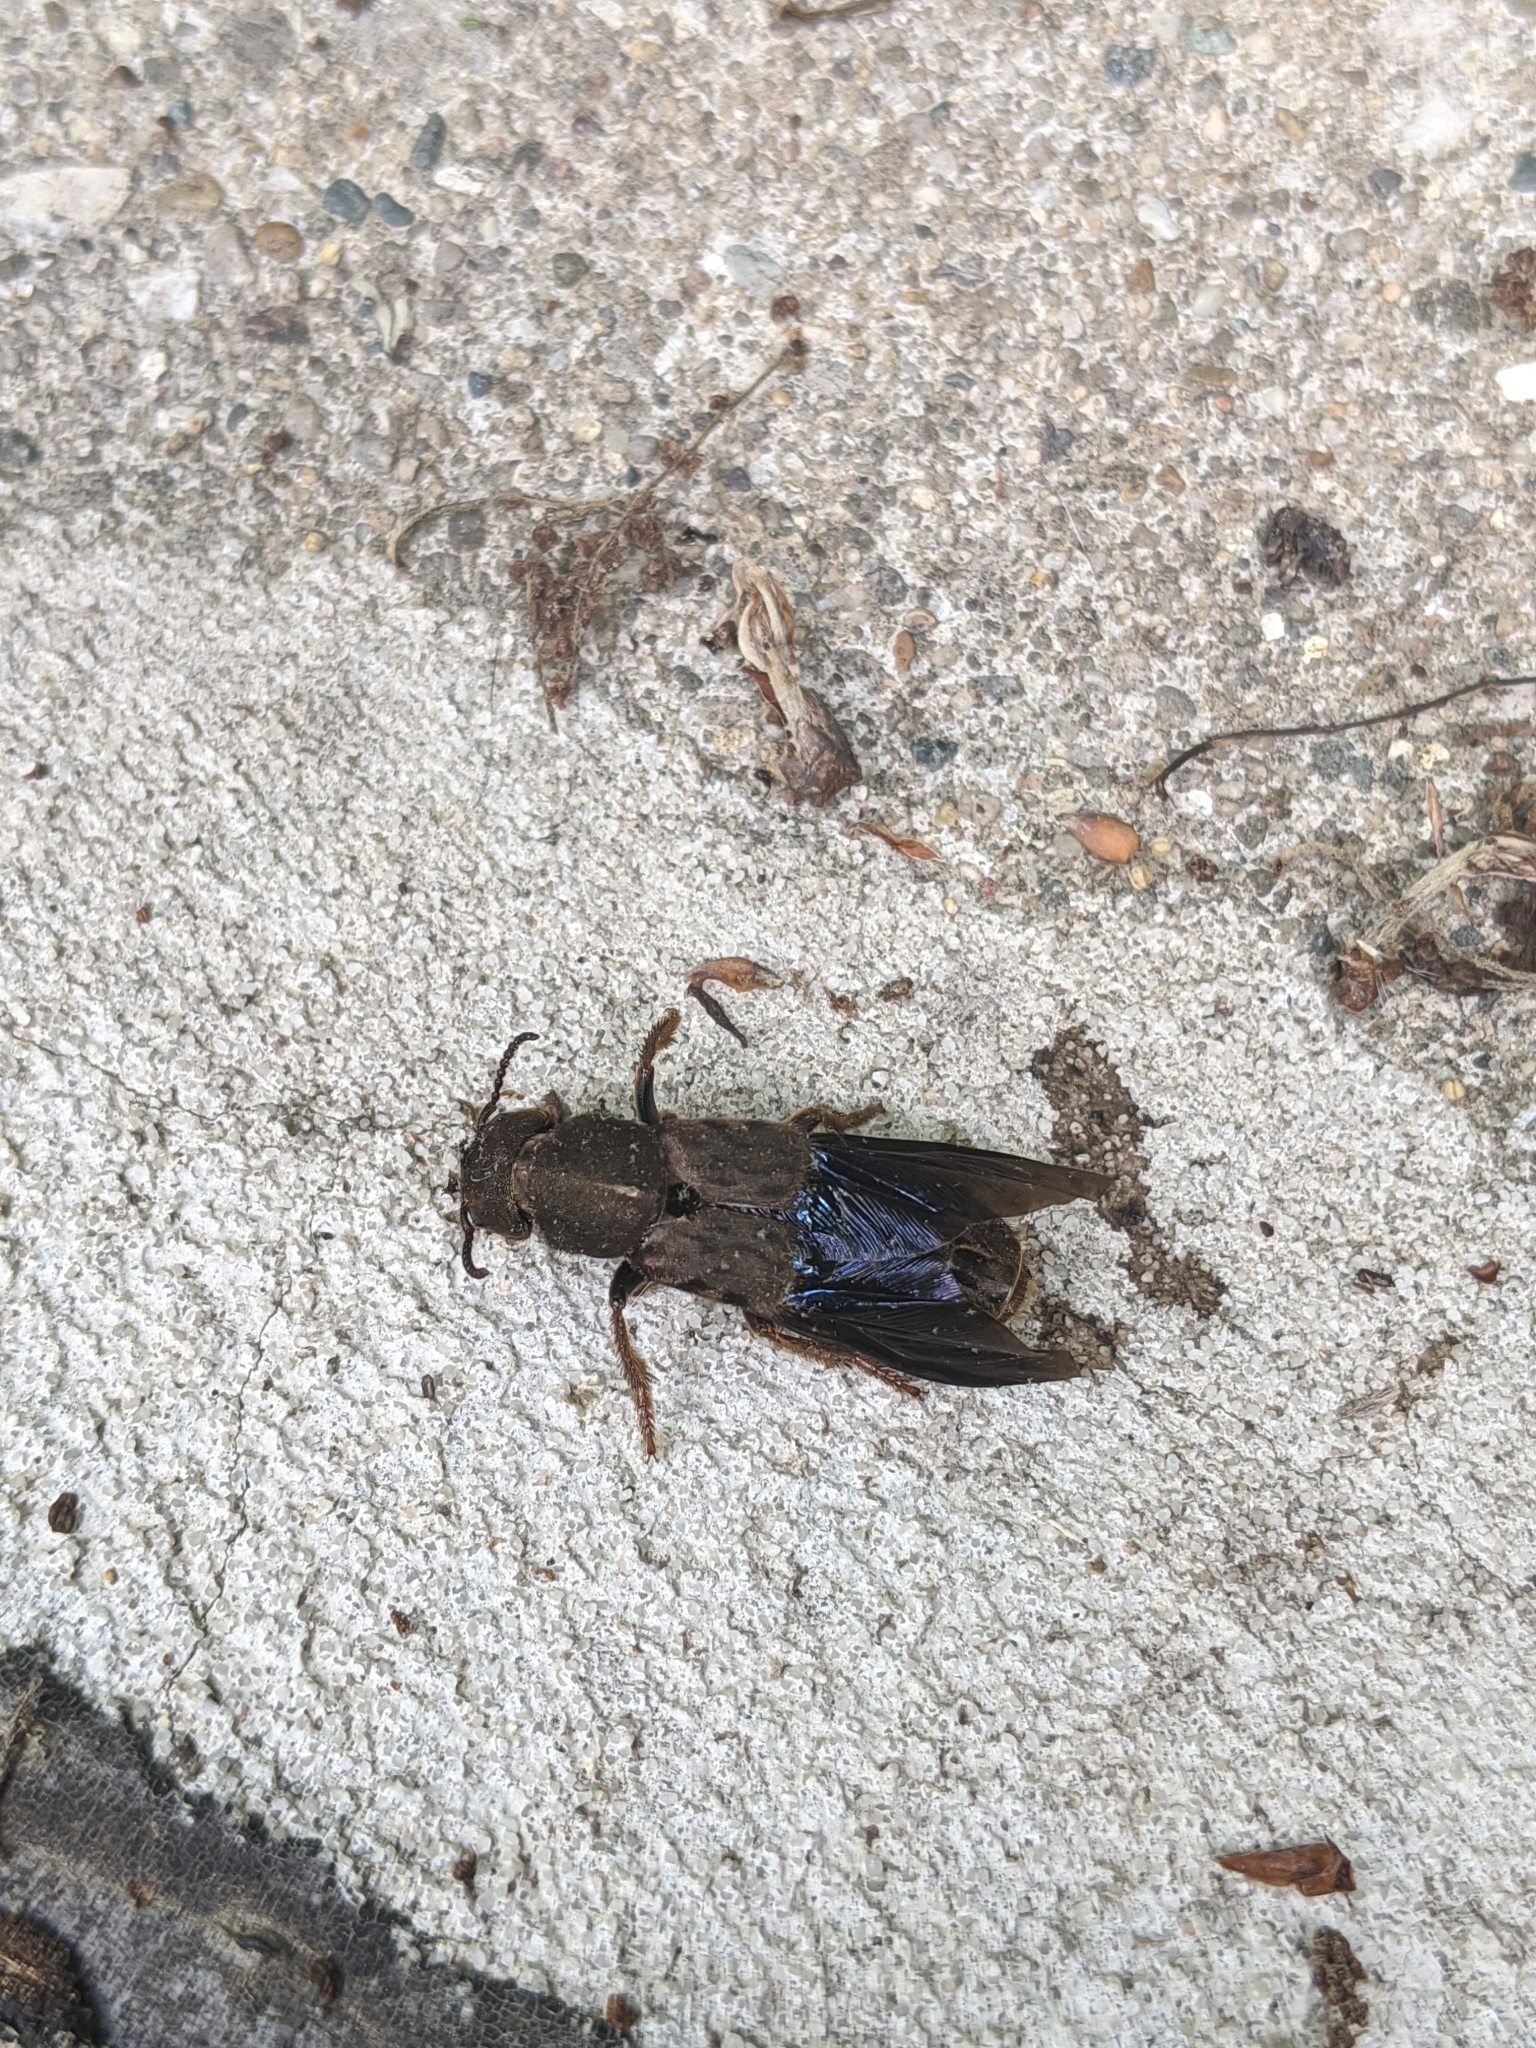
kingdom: Animalia
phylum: Arthropoda
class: Insecta
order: Coleoptera
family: Staphylinidae
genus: Platydracus
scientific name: Platydracus maculosus
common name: Brown rove beetle
